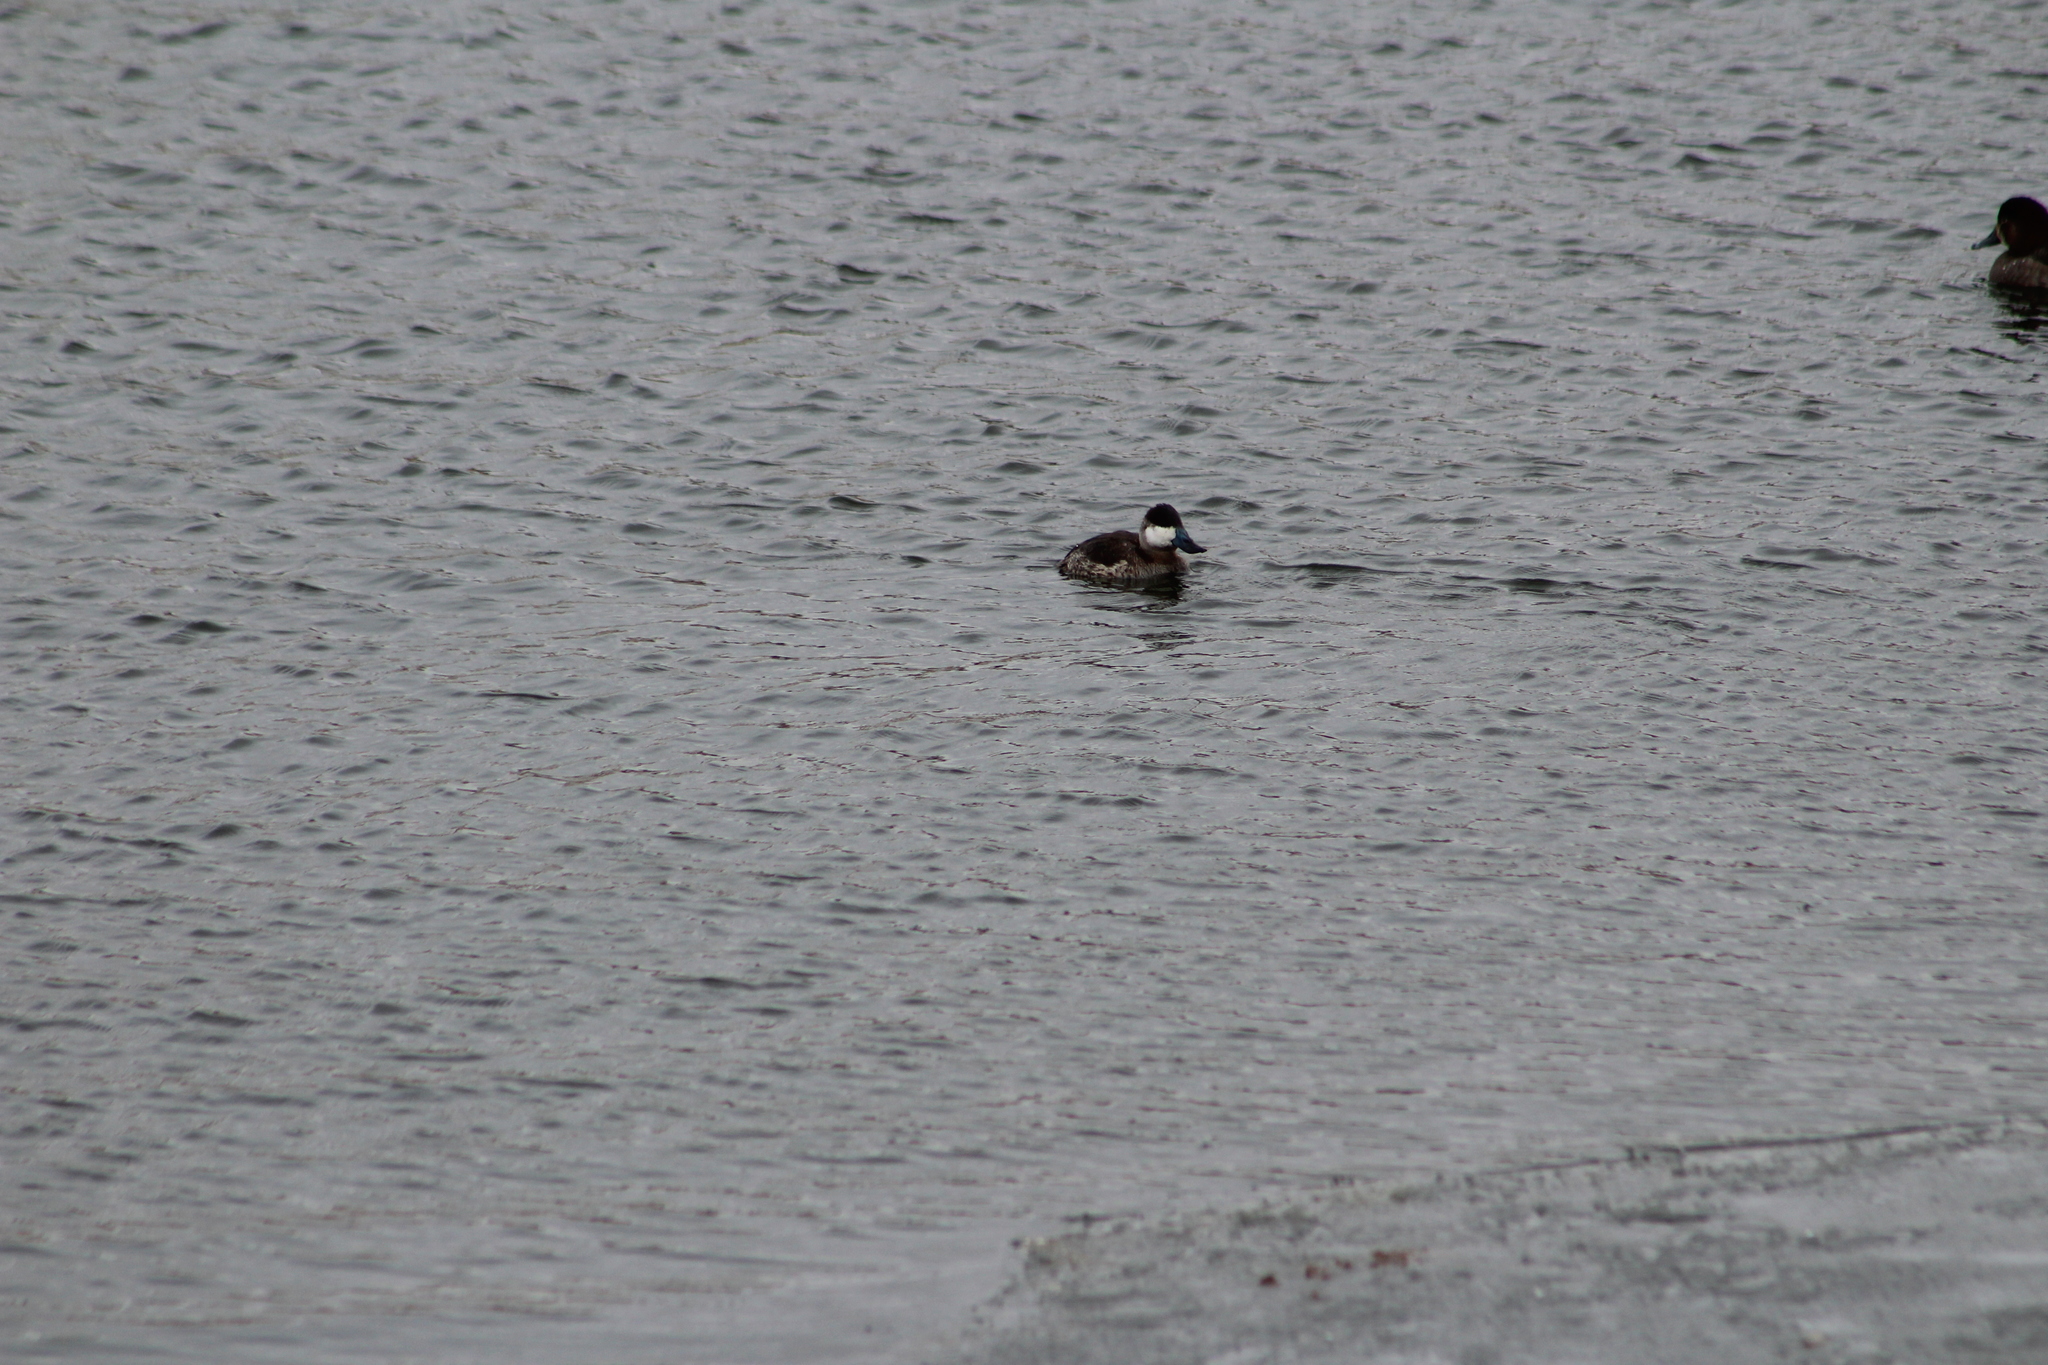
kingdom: Animalia
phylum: Chordata
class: Aves
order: Anseriformes
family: Anatidae
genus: Oxyura
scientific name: Oxyura jamaicensis
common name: Ruddy duck
